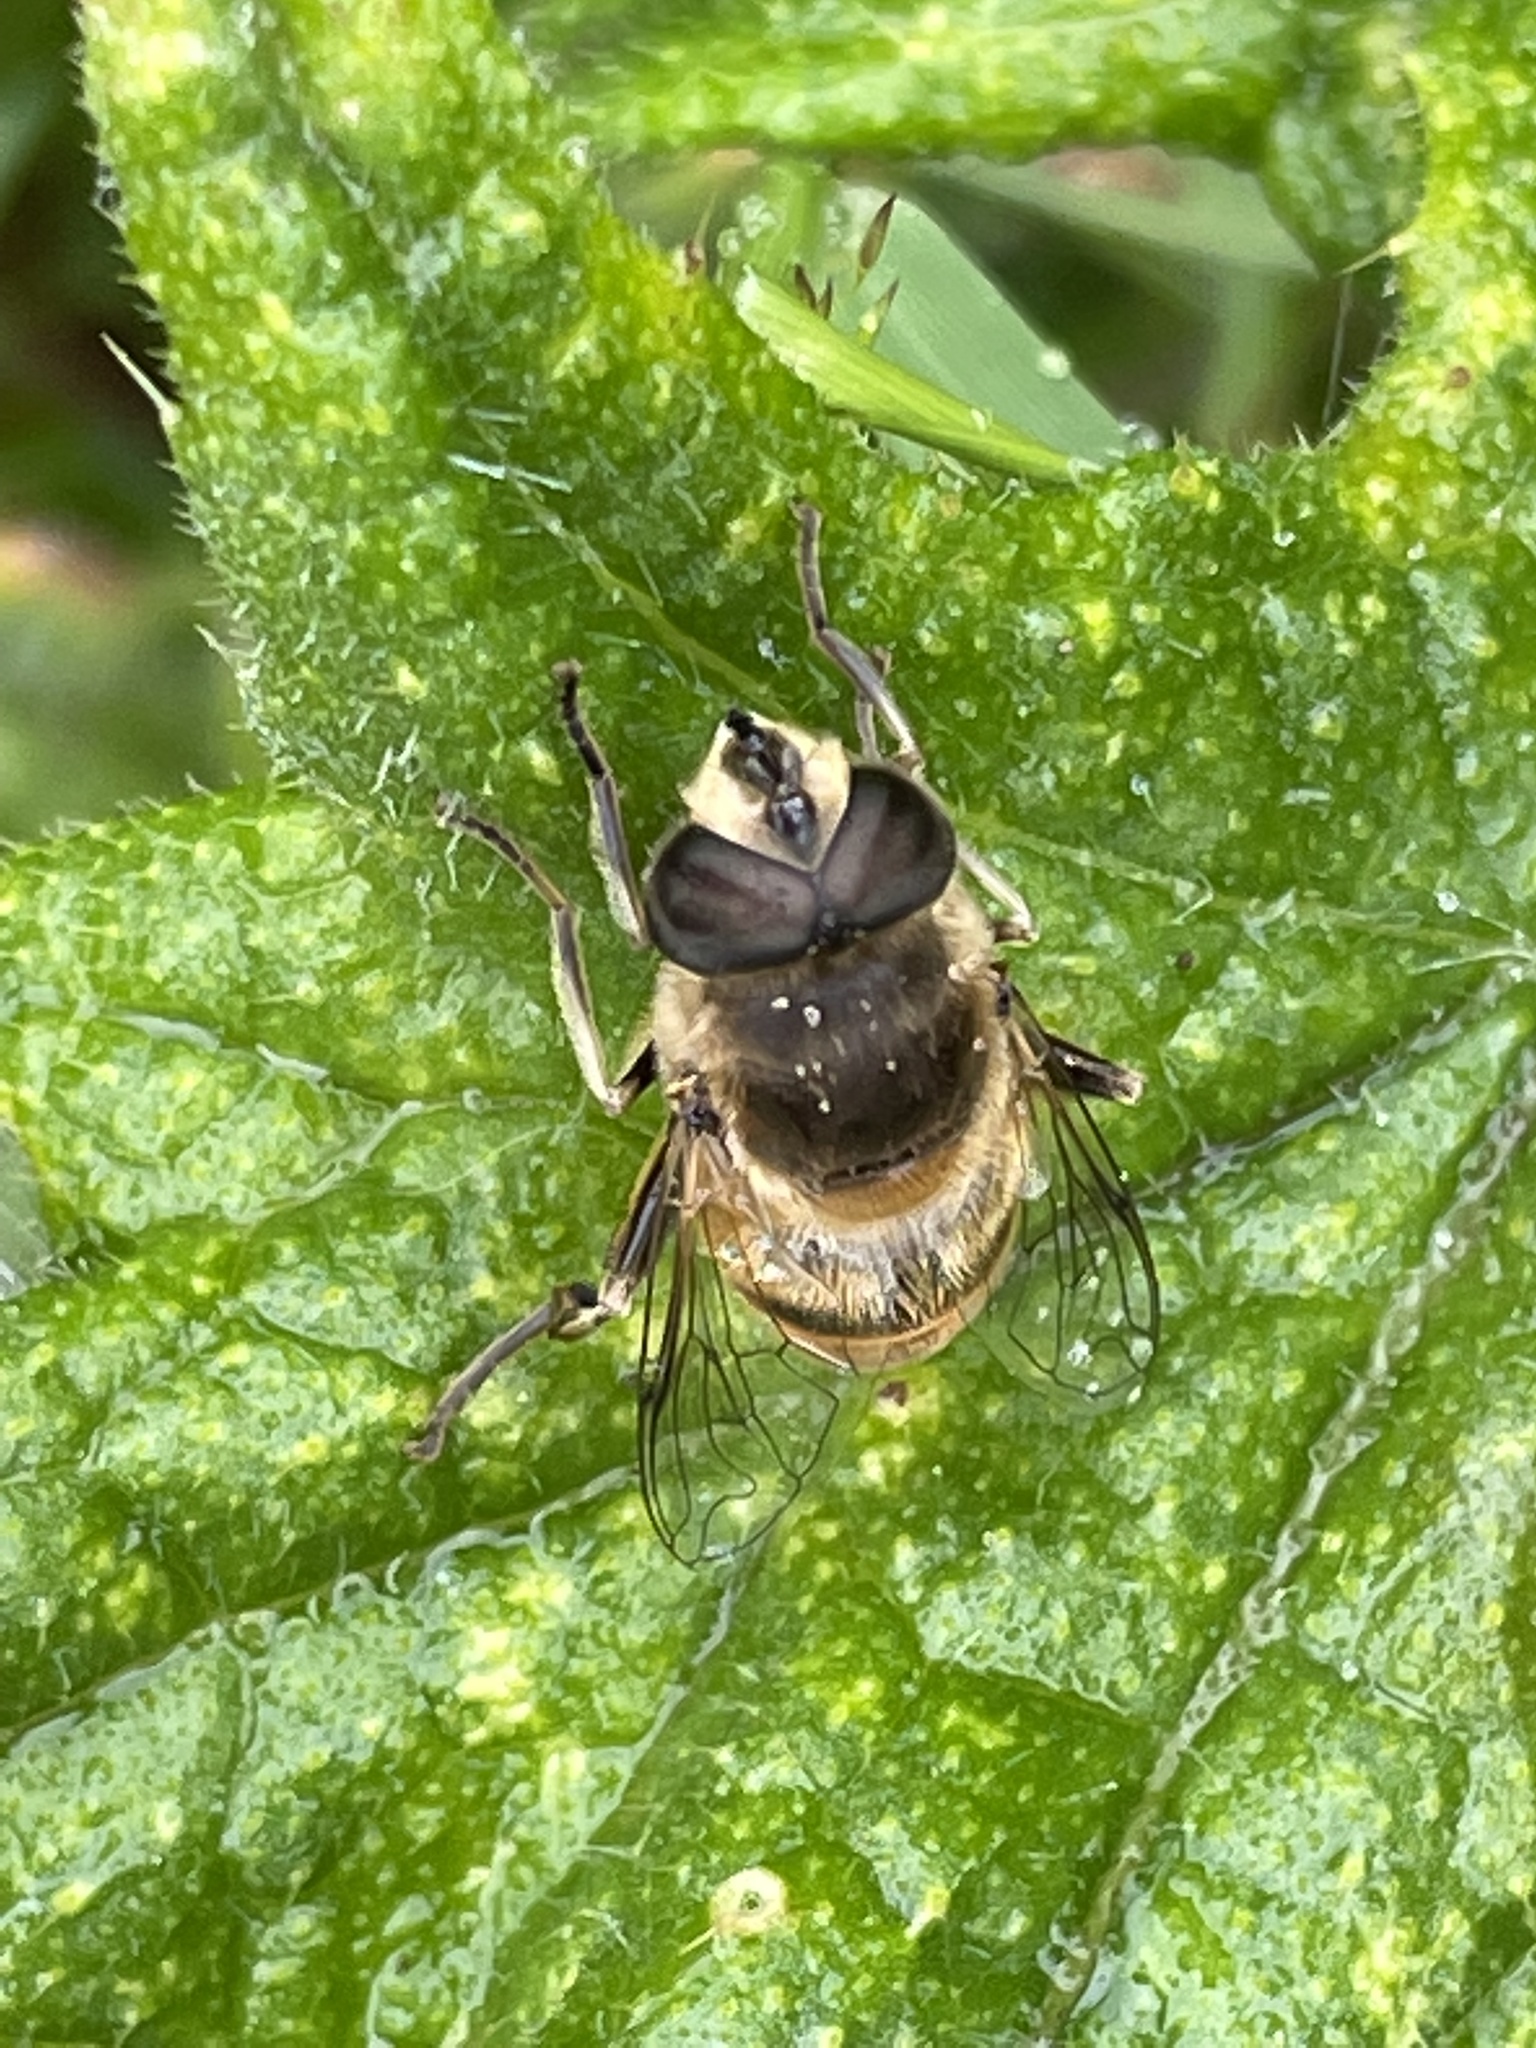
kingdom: Animalia
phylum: Arthropoda
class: Insecta
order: Diptera
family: Syrphidae
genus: Eristalis
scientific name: Eristalis tenax
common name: Drone fly
